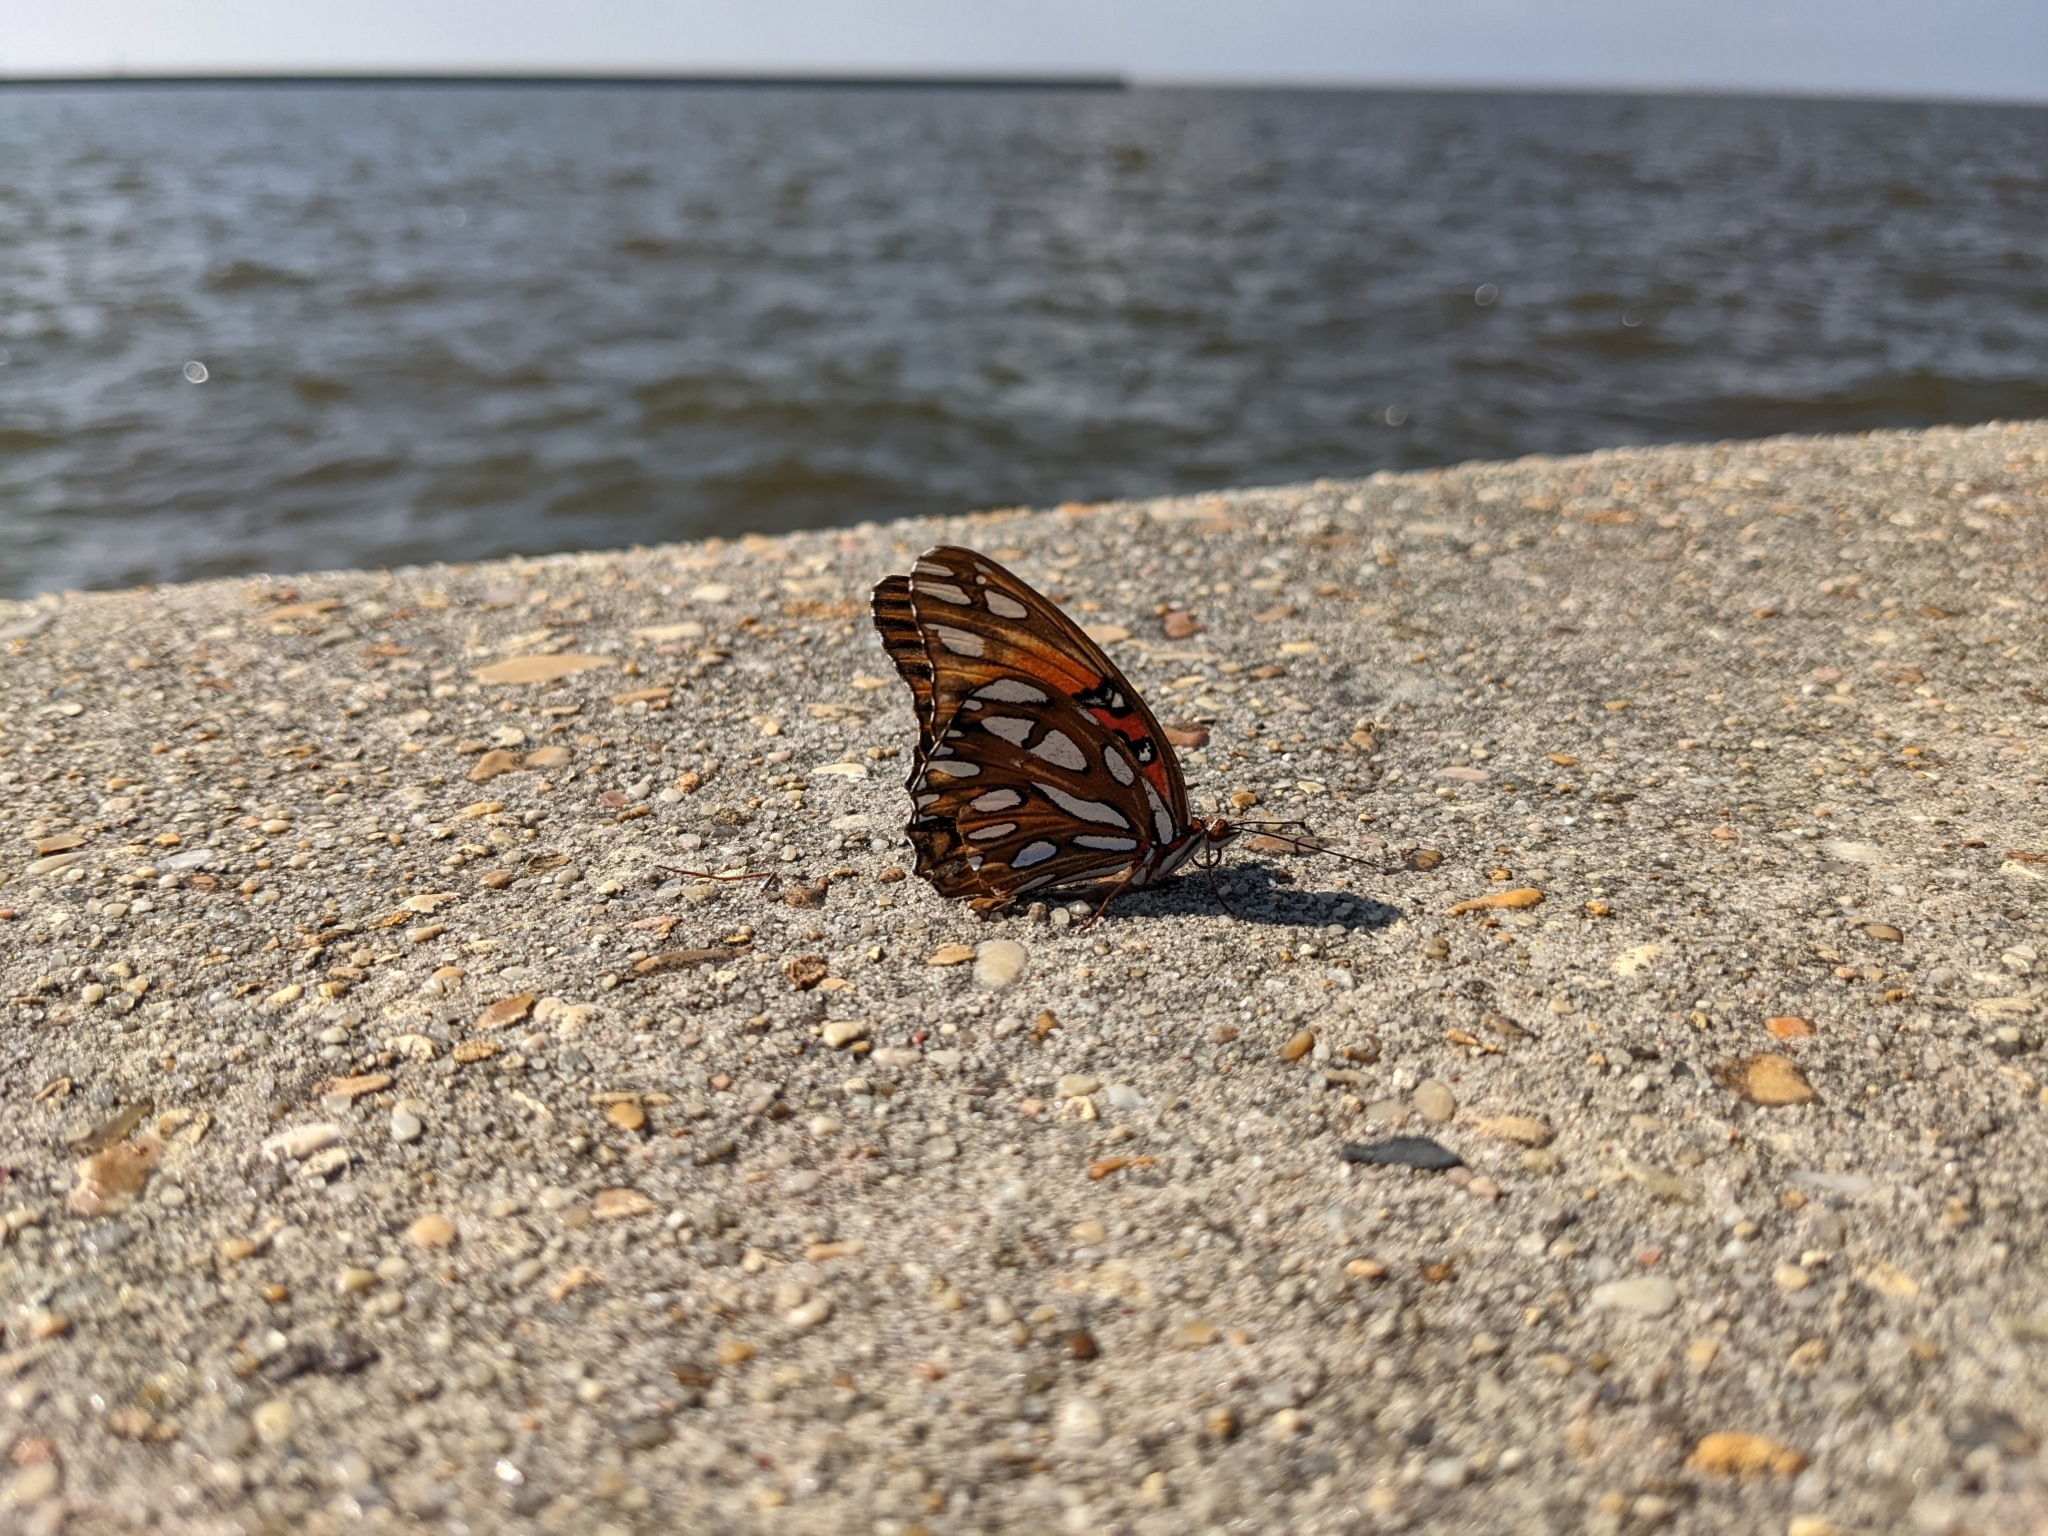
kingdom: Animalia
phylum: Arthropoda
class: Insecta
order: Lepidoptera
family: Nymphalidae
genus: Dione
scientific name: Dione vanillae
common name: Gulf fritillary
